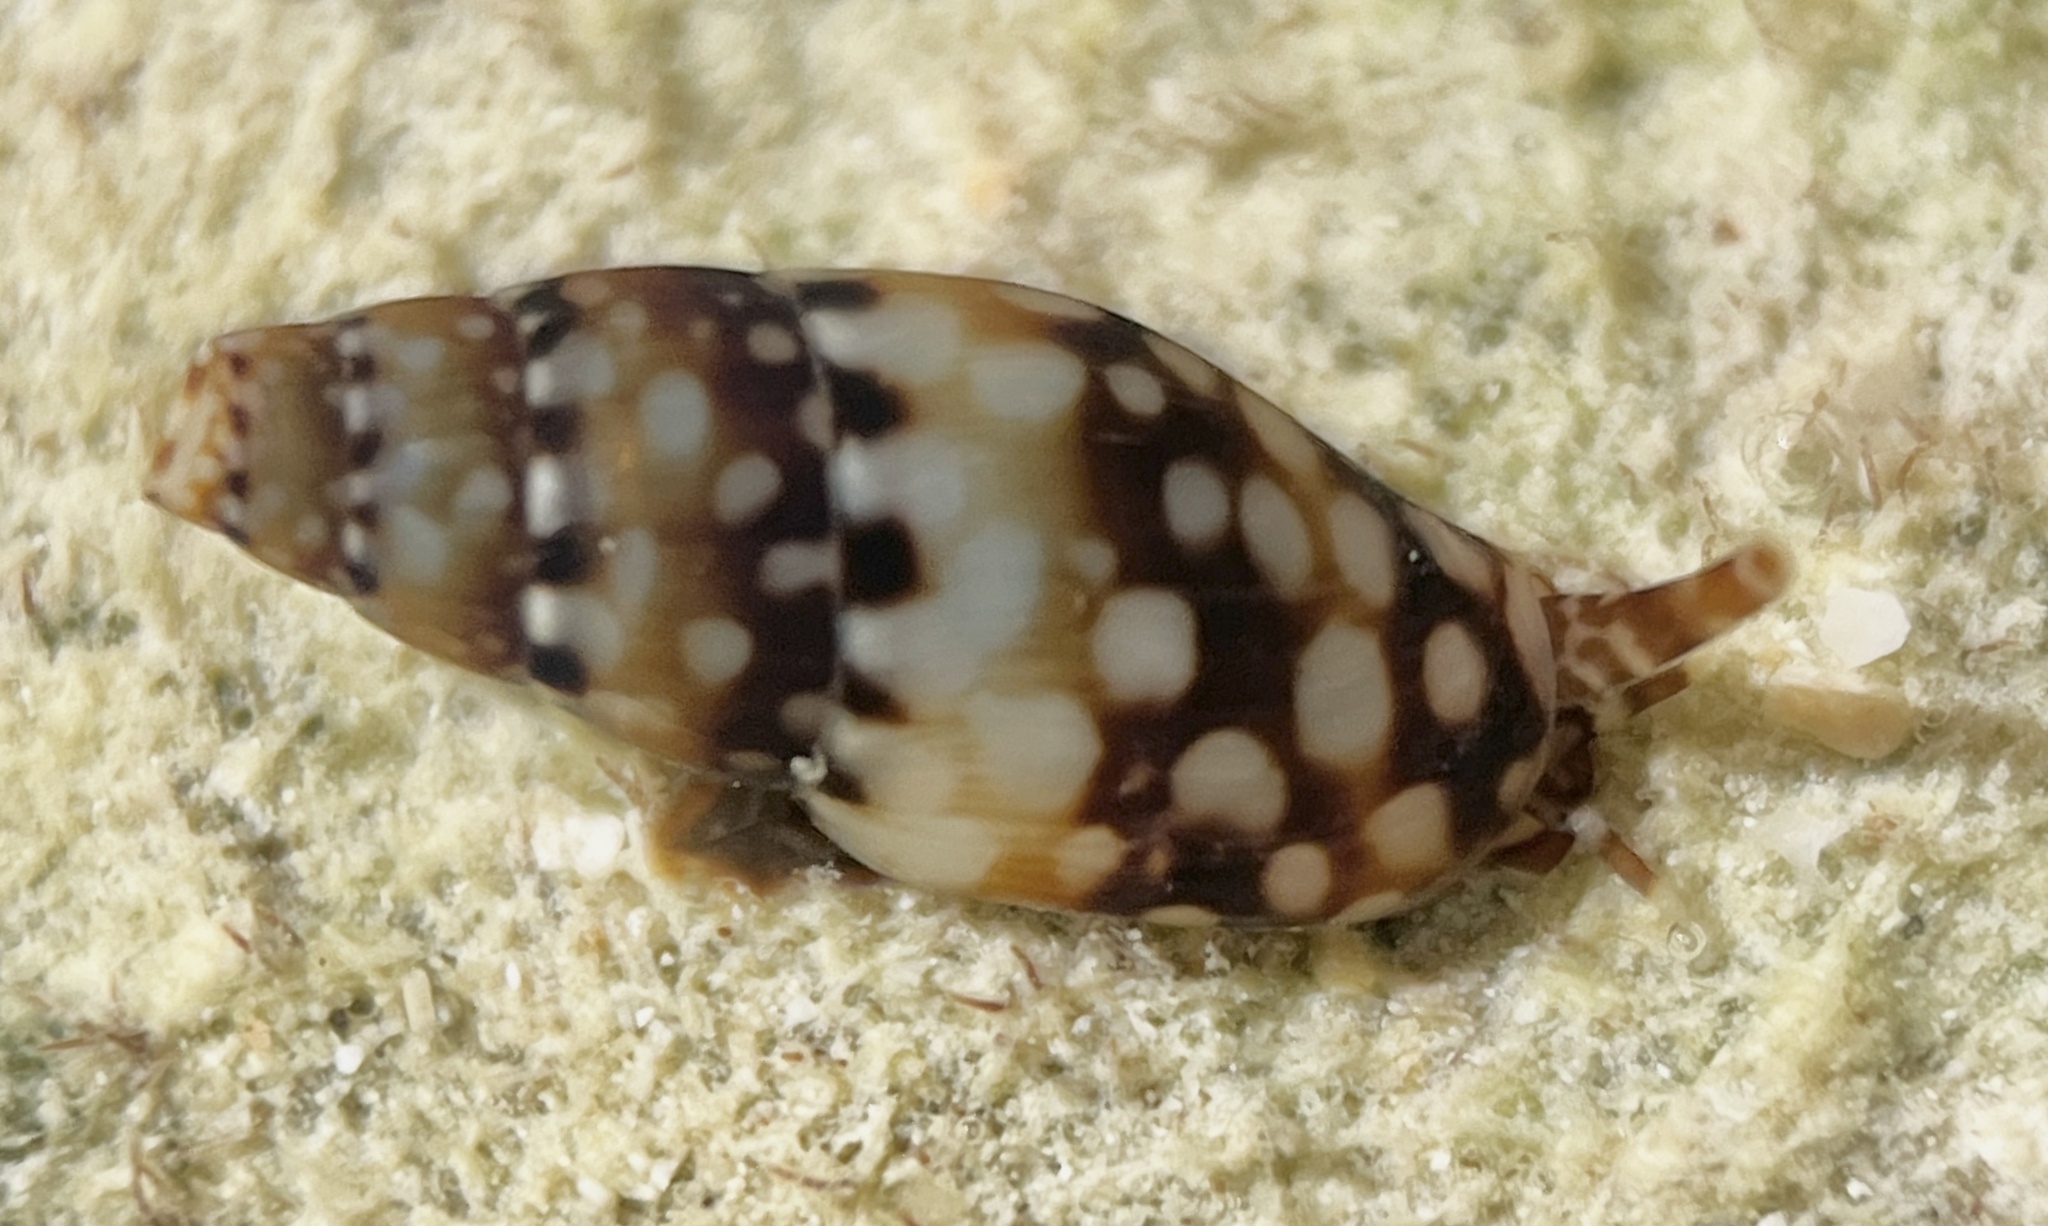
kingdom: Animalia
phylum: Mollusca
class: Gastropoda
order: Neogastropoda
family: Columbellidae
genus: Mitrella
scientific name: Mitrella ocellata
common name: White-spot dovesnail
